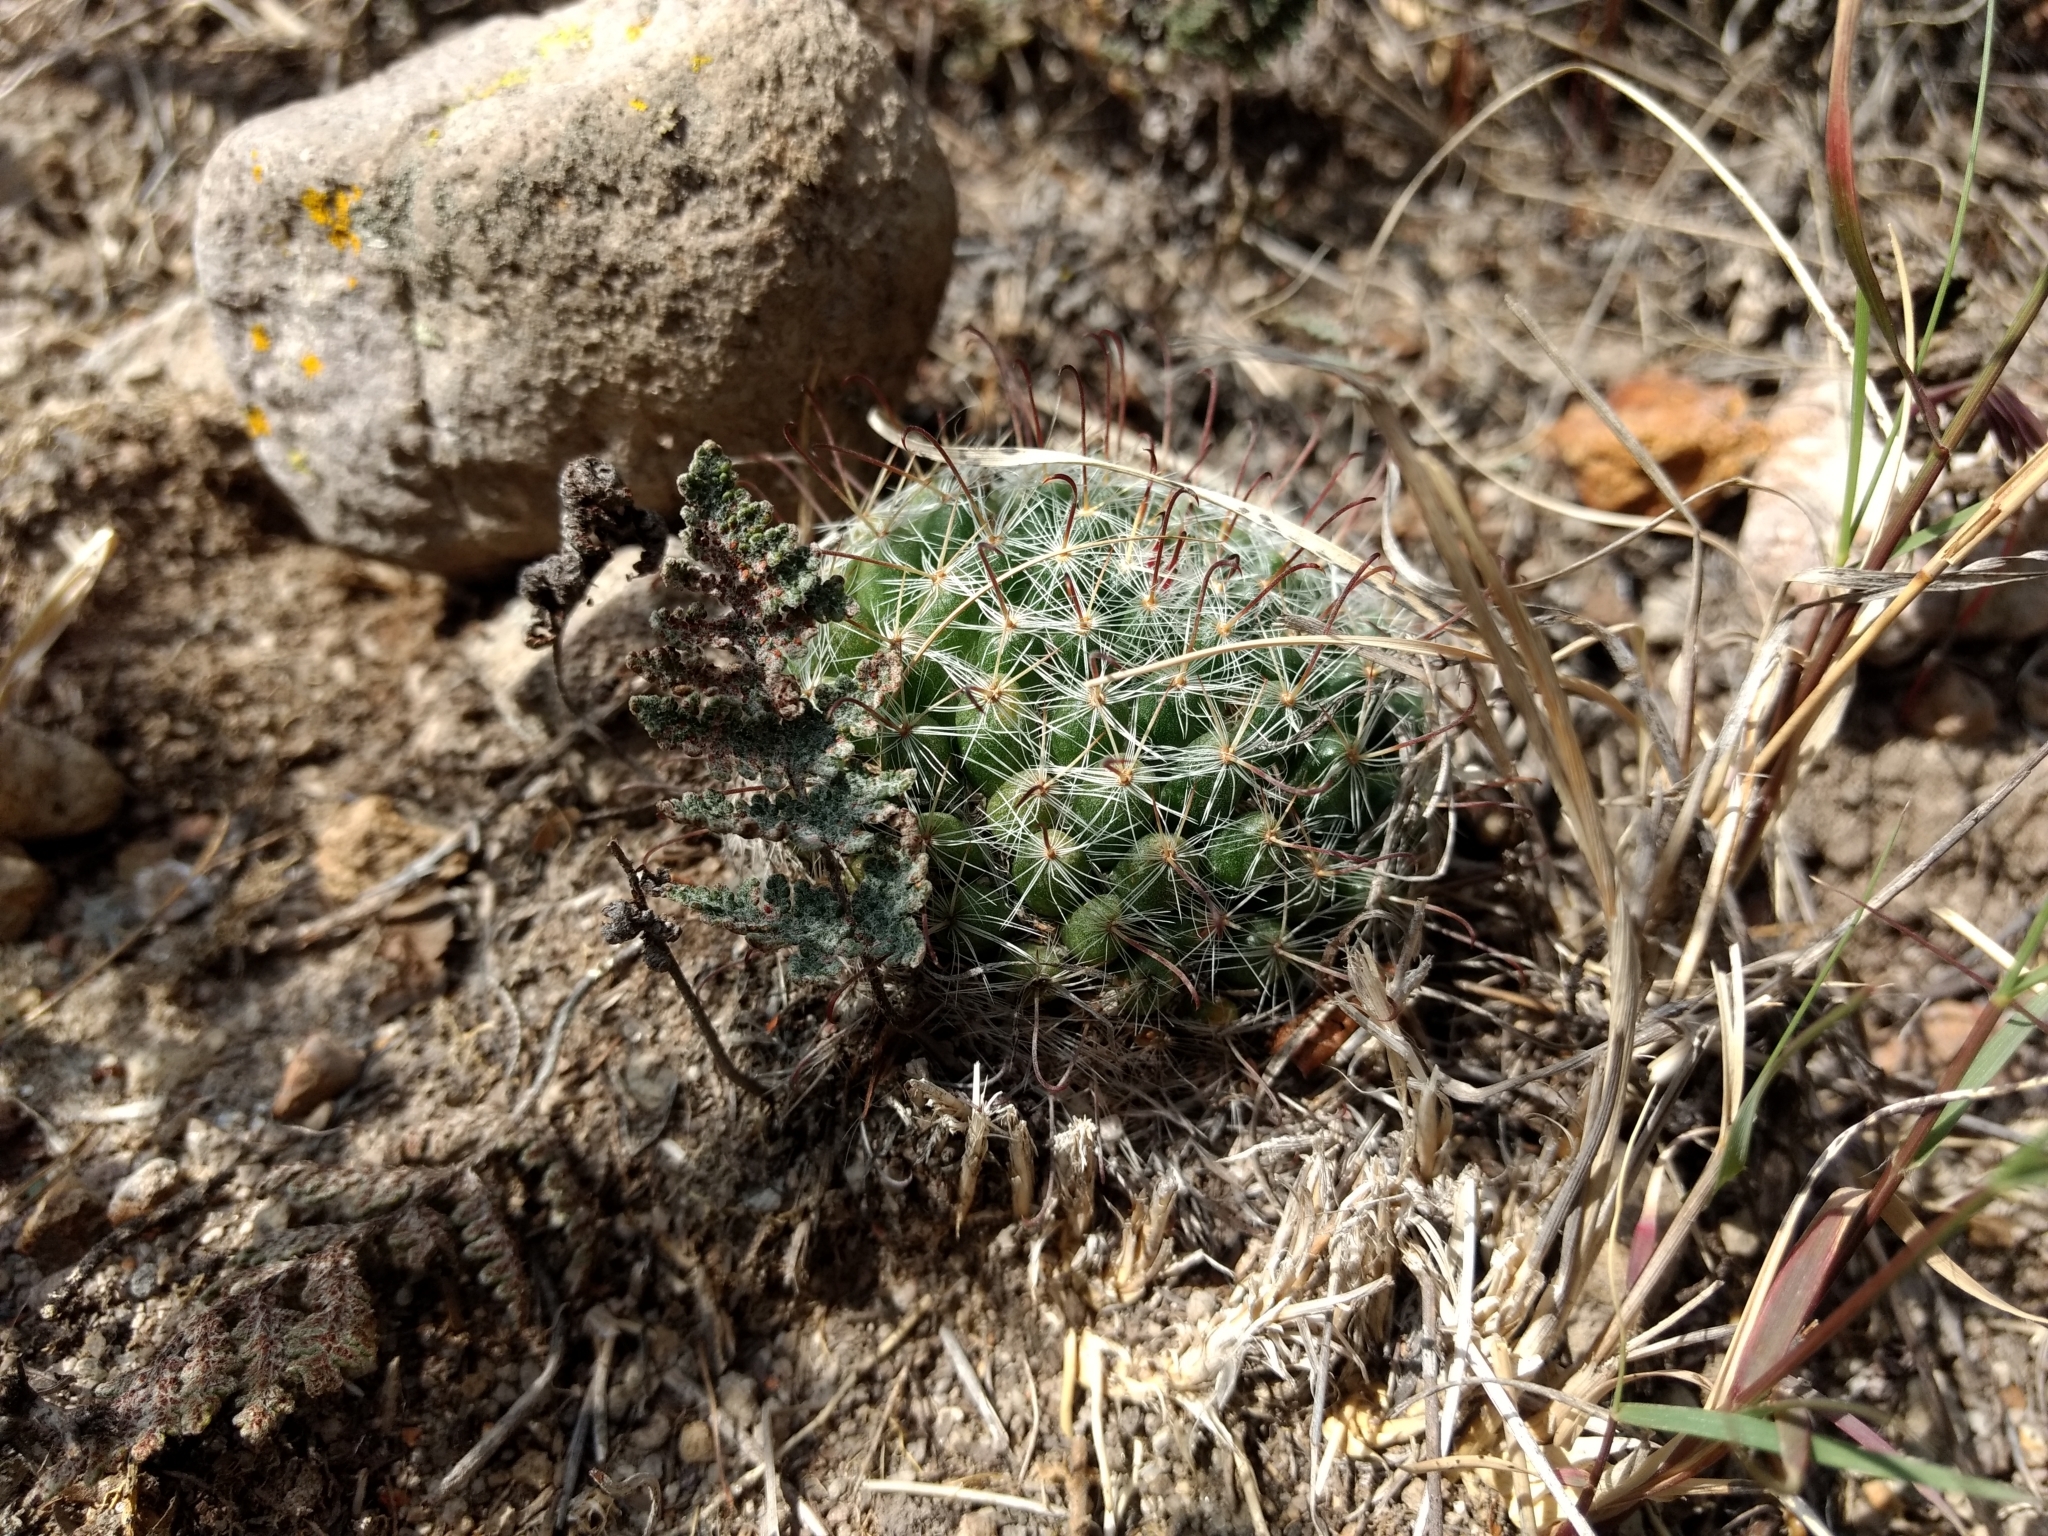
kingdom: Plantae
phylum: Tracheophyta
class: Magnoliopsida
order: Caryophyllales
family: Cactaceae
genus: Mammillaria
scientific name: Mammillaria crinita
